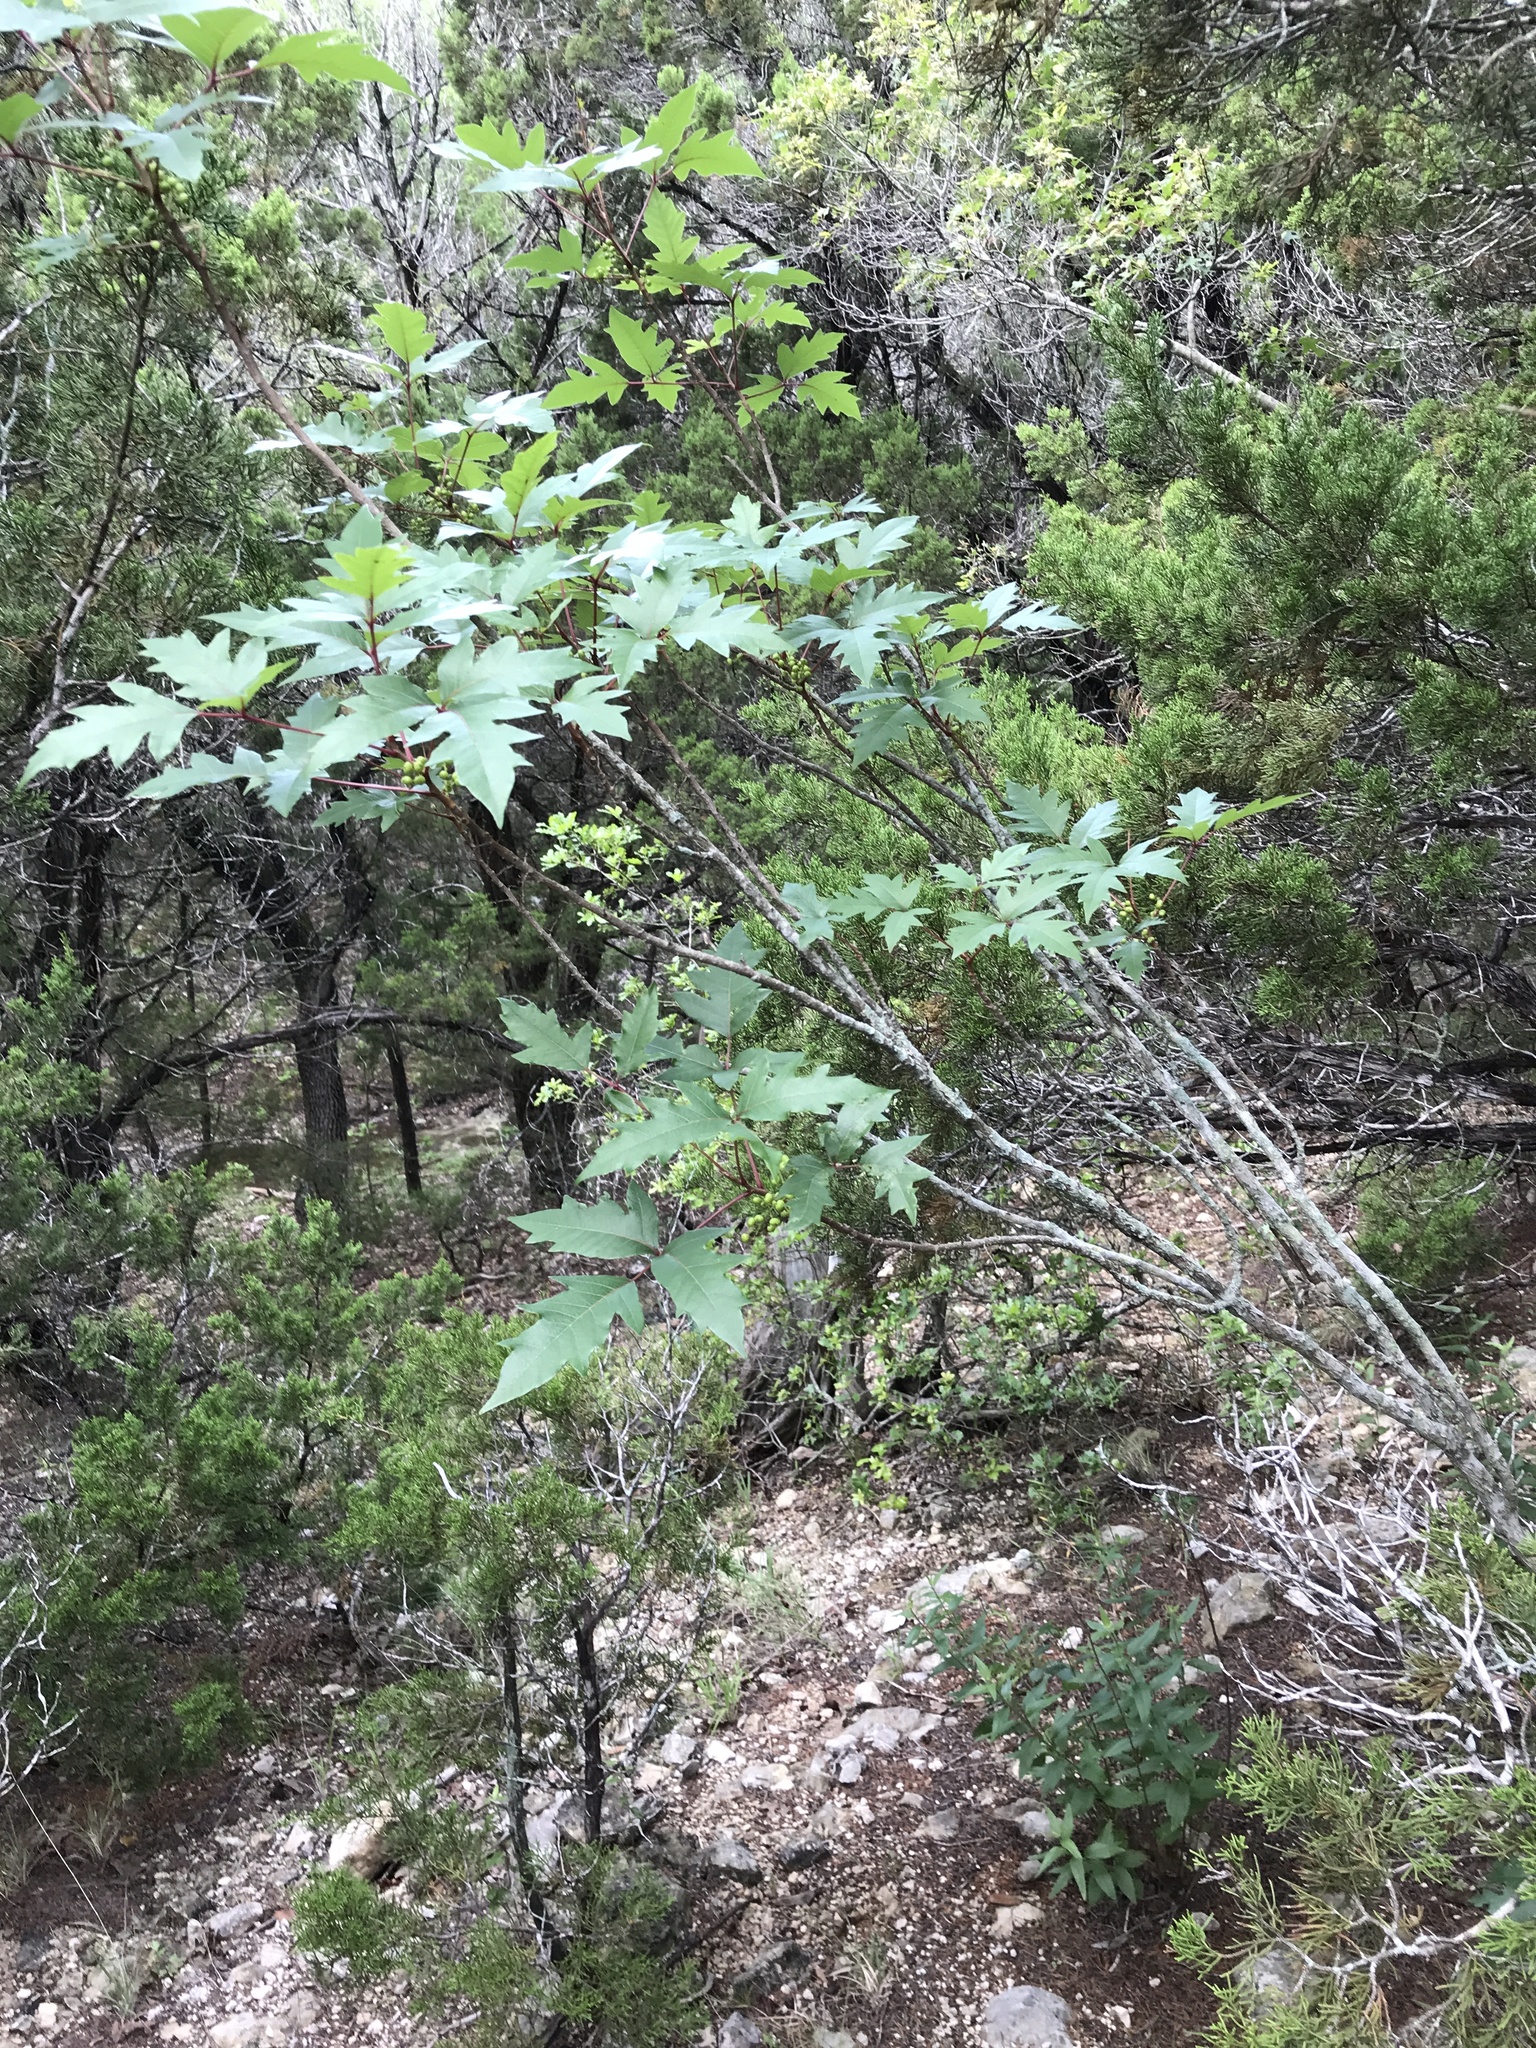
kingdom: Plantae
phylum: Tracheophyta
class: Magnoliopsida
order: Sapindales
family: Anacardiaceae
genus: Toxicodendron
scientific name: Toxicodendron radicans
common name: Poison ivy
